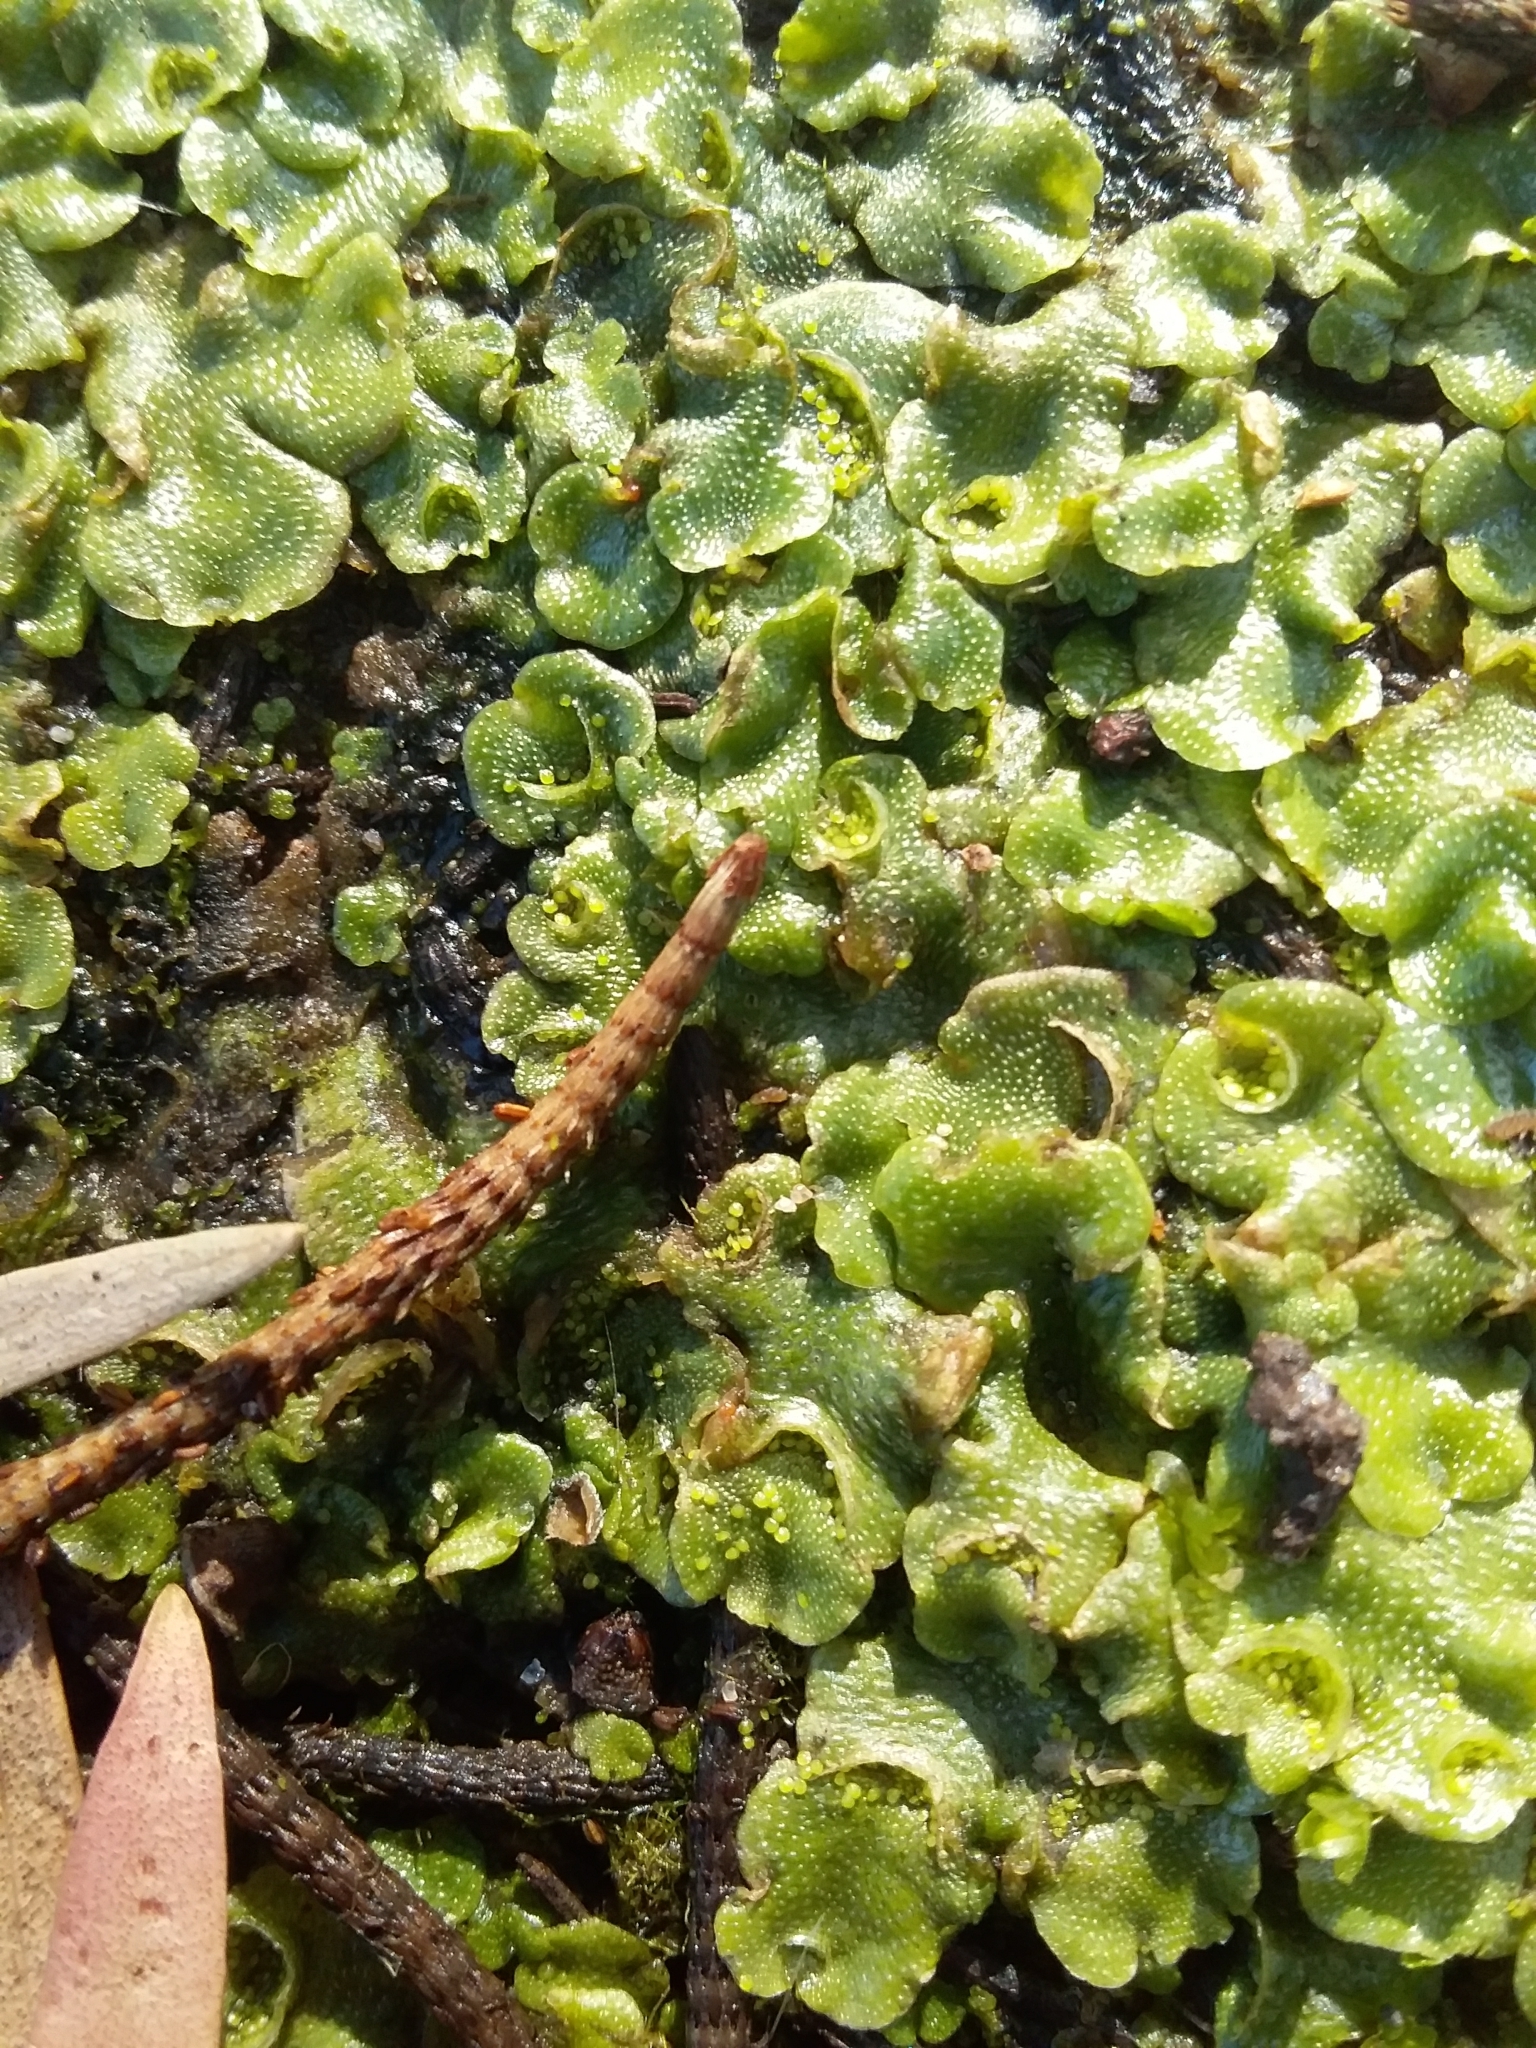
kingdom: Plantae
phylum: Marchantiophyta
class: Marchantiopsida
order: Lunulariales
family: Lunulariaceae
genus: Lunularia
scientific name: Lunularia cruciata
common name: Crescent-cup liverwort
